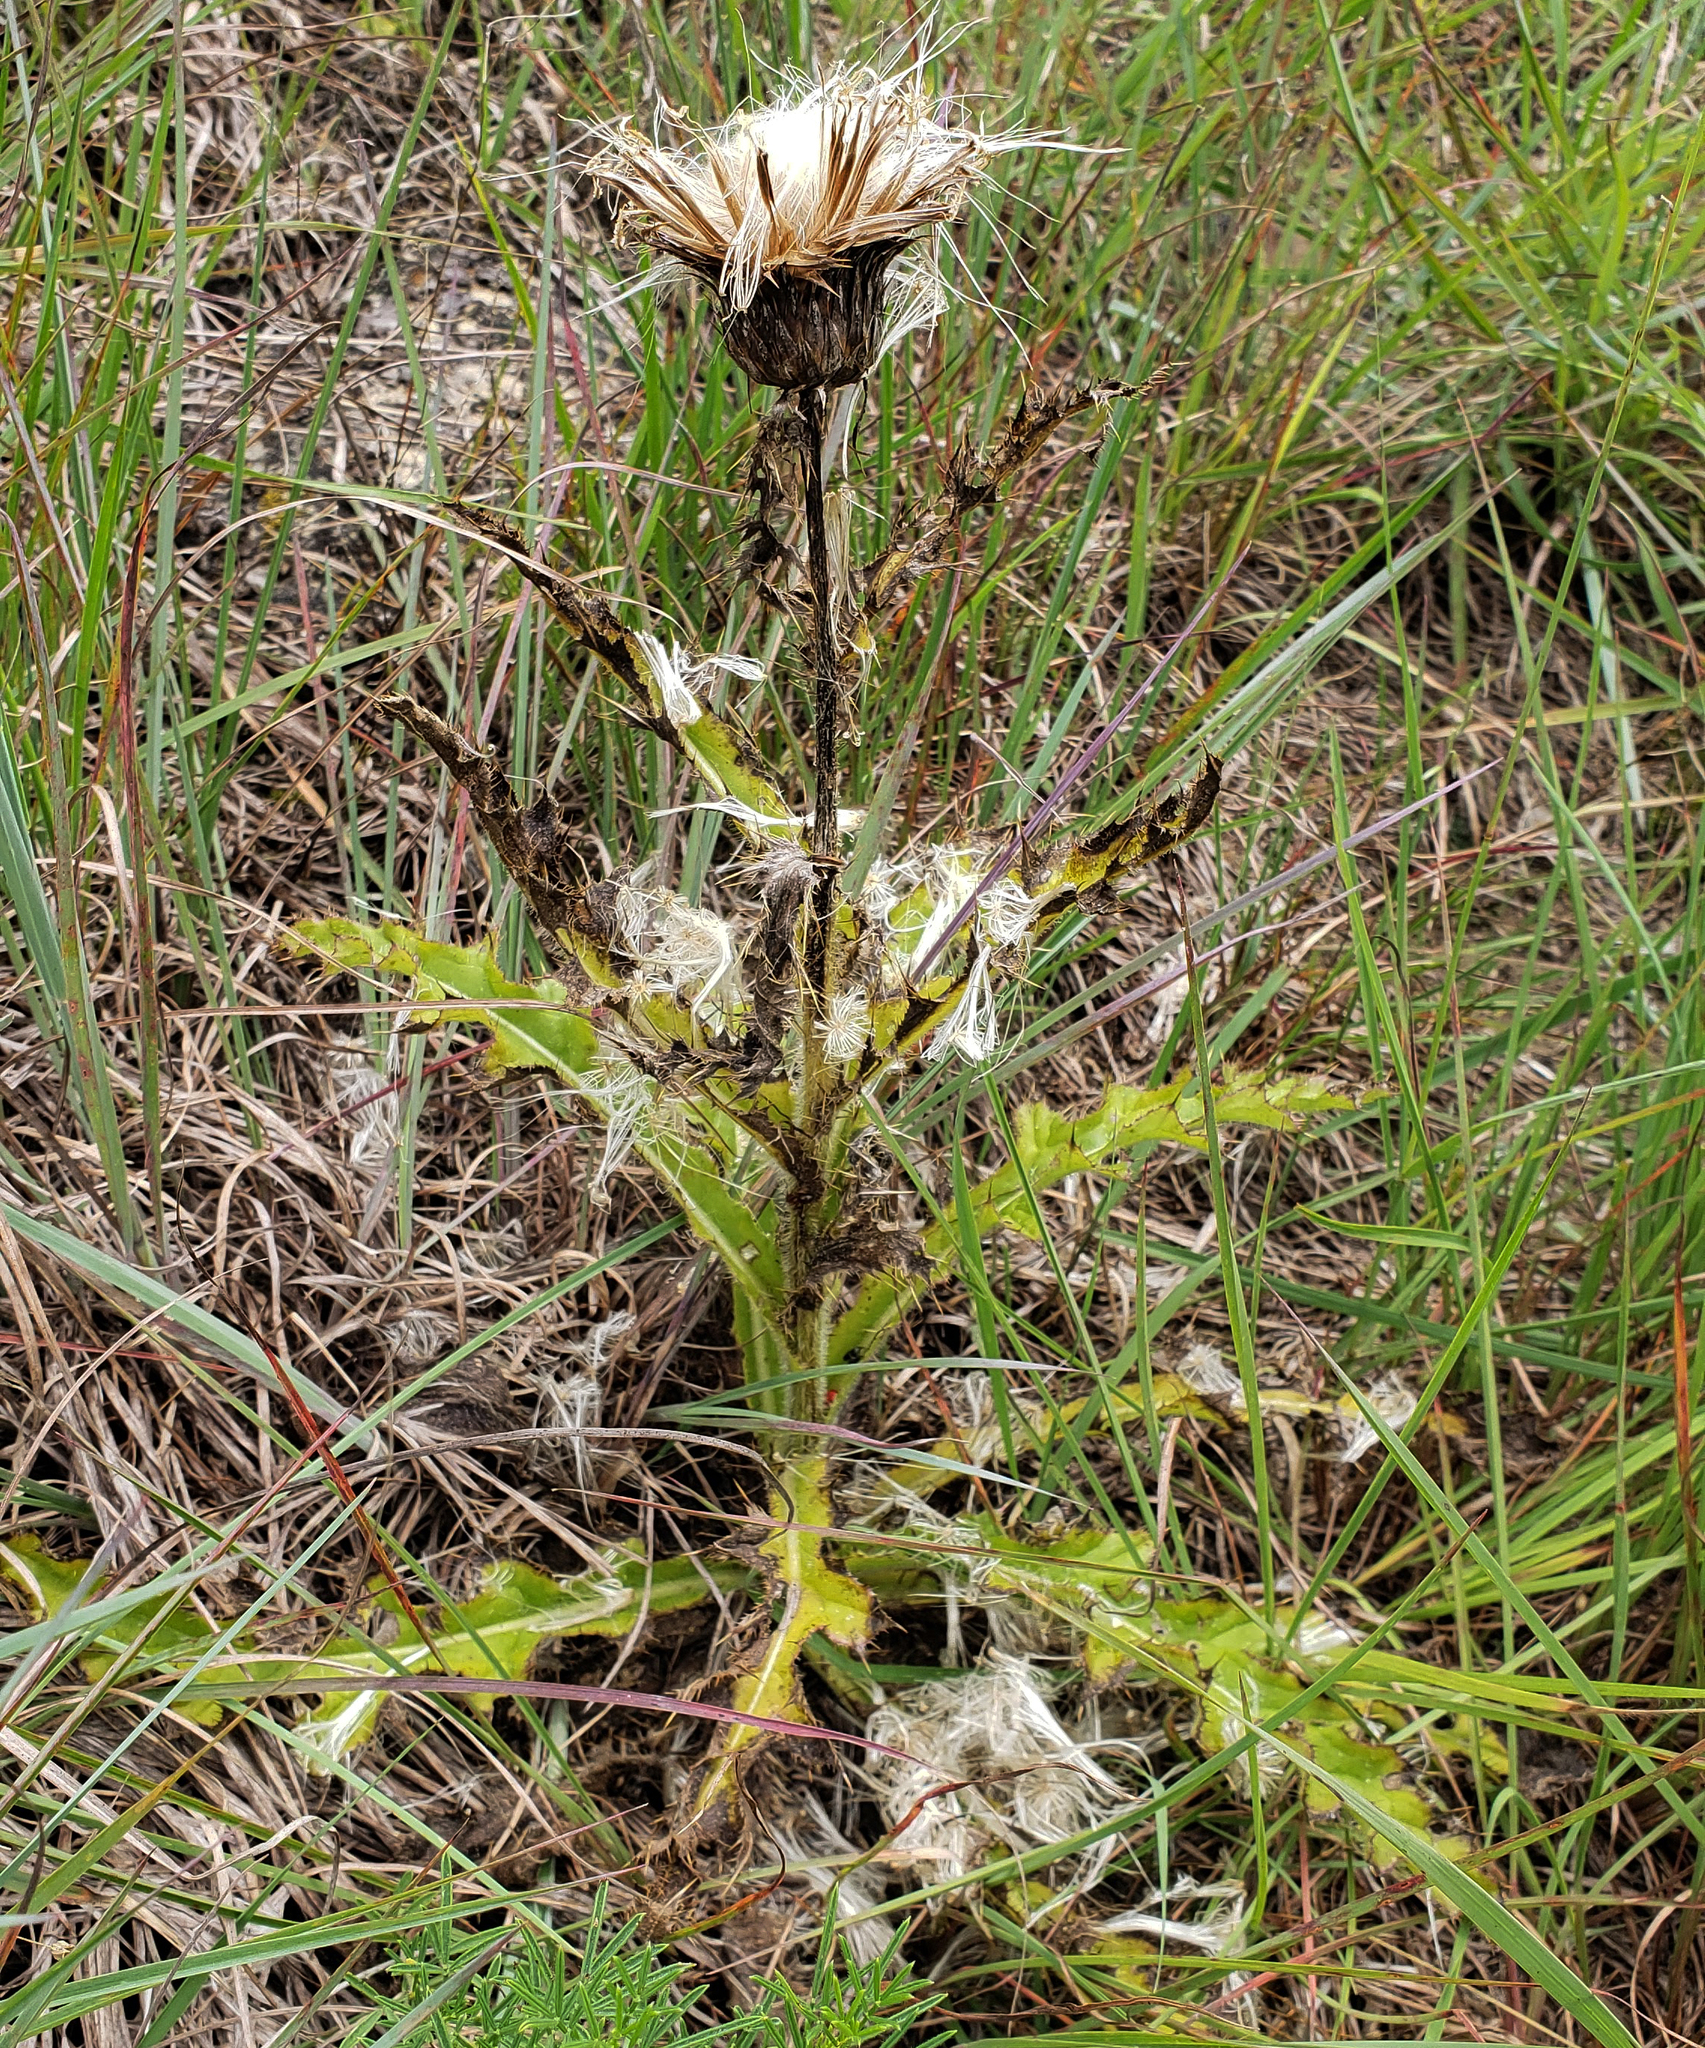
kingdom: Plantae
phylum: Tracheophyta
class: Magnoliopsida
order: Asterales
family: Asteraceae
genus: Cirsium
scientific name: Cirsium pumilum
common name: Pasture thistle
